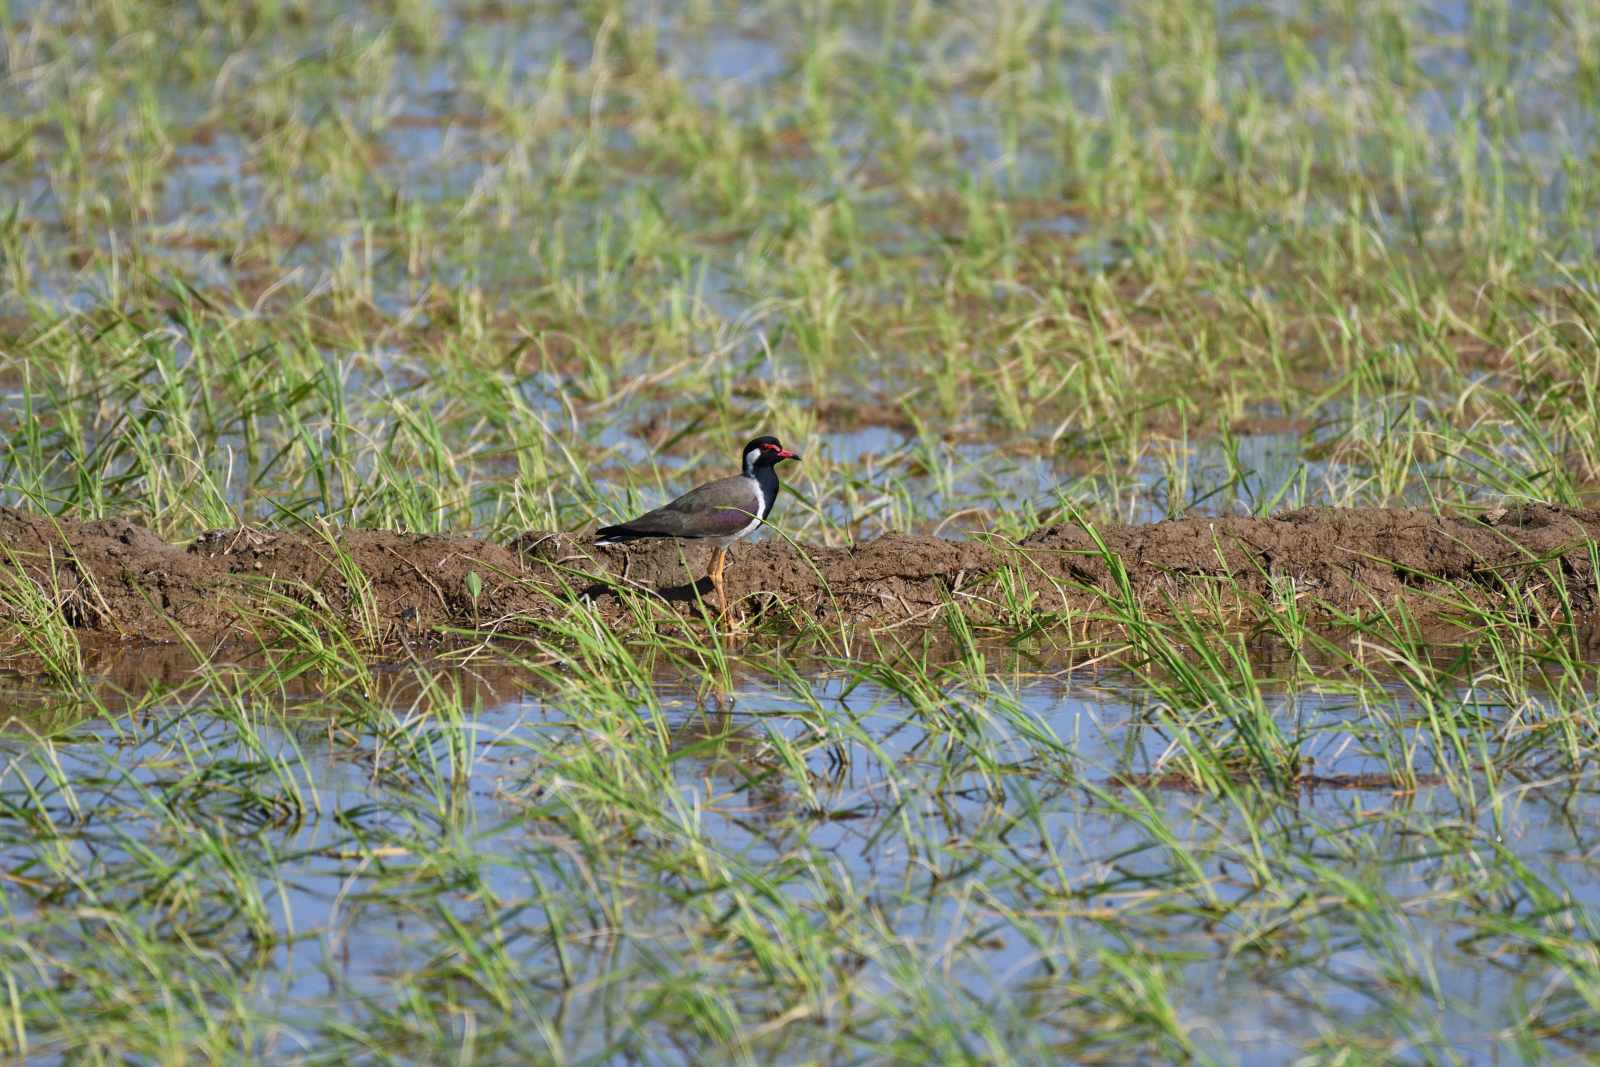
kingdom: Animalia
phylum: Chordata
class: Aves
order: Charadriiformes
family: Charadriidae
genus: Vanellus
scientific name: Vanellus indicus
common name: Red-wattled lapwing
